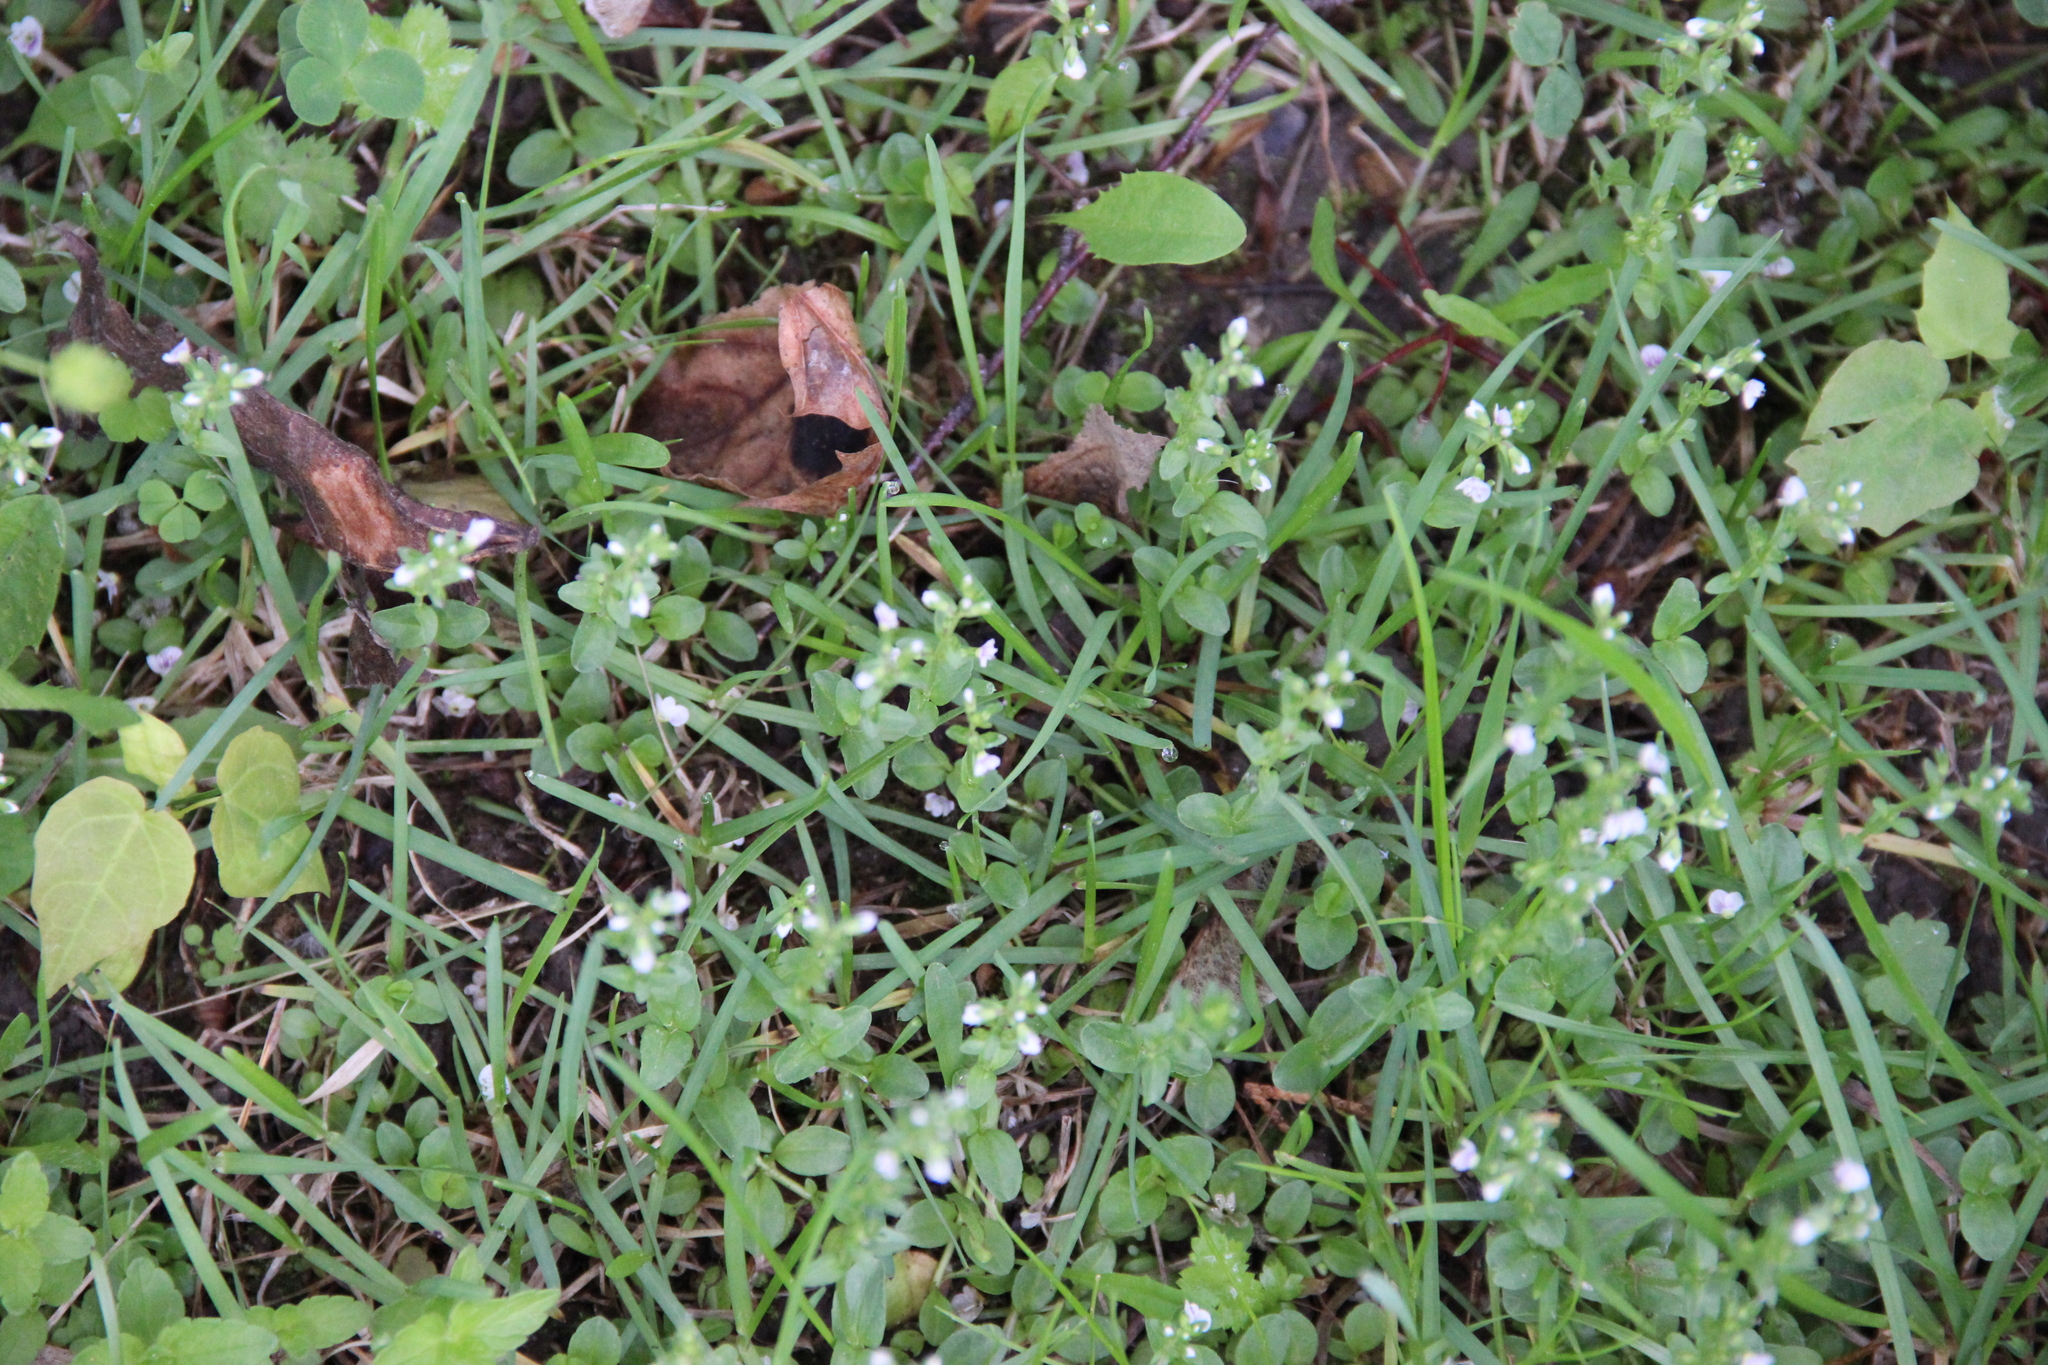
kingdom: Plantae
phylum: Tracheophyta
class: Magnoliopsida
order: Lamiales
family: Plantaginaceae
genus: Veronica
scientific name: Veronica serpyllifolia
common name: Thyme-leaved speedwell
